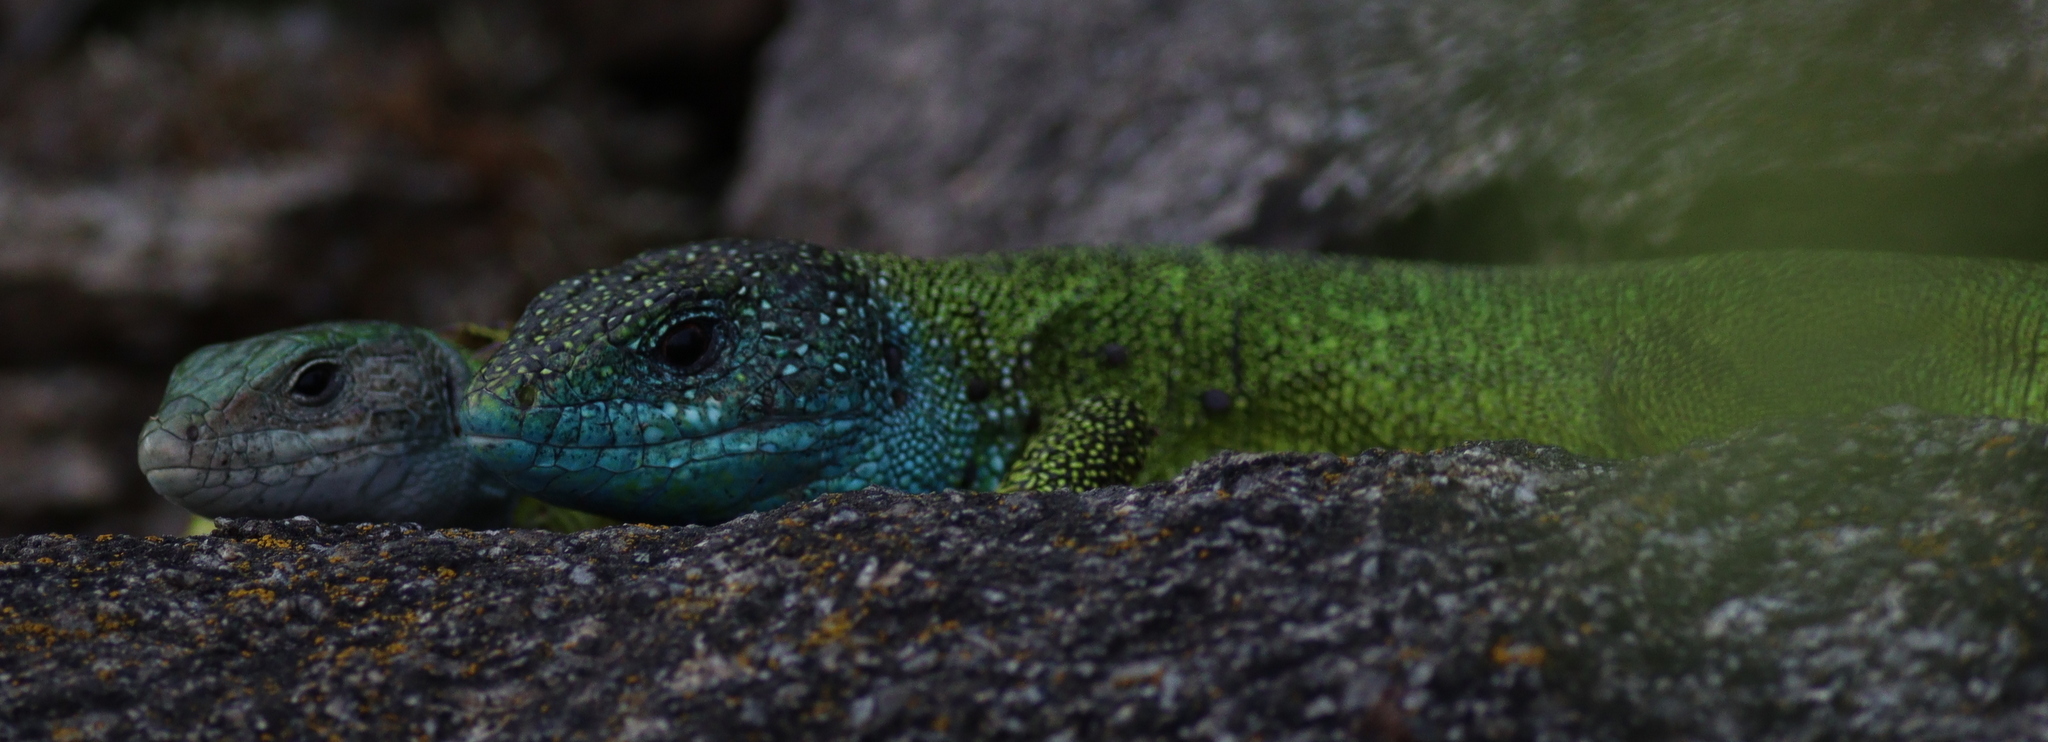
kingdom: Animalia
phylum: Chordata
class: Squamata
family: Lacertidae
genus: Lacerta
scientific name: Lacerta viridis
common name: European green lizard
